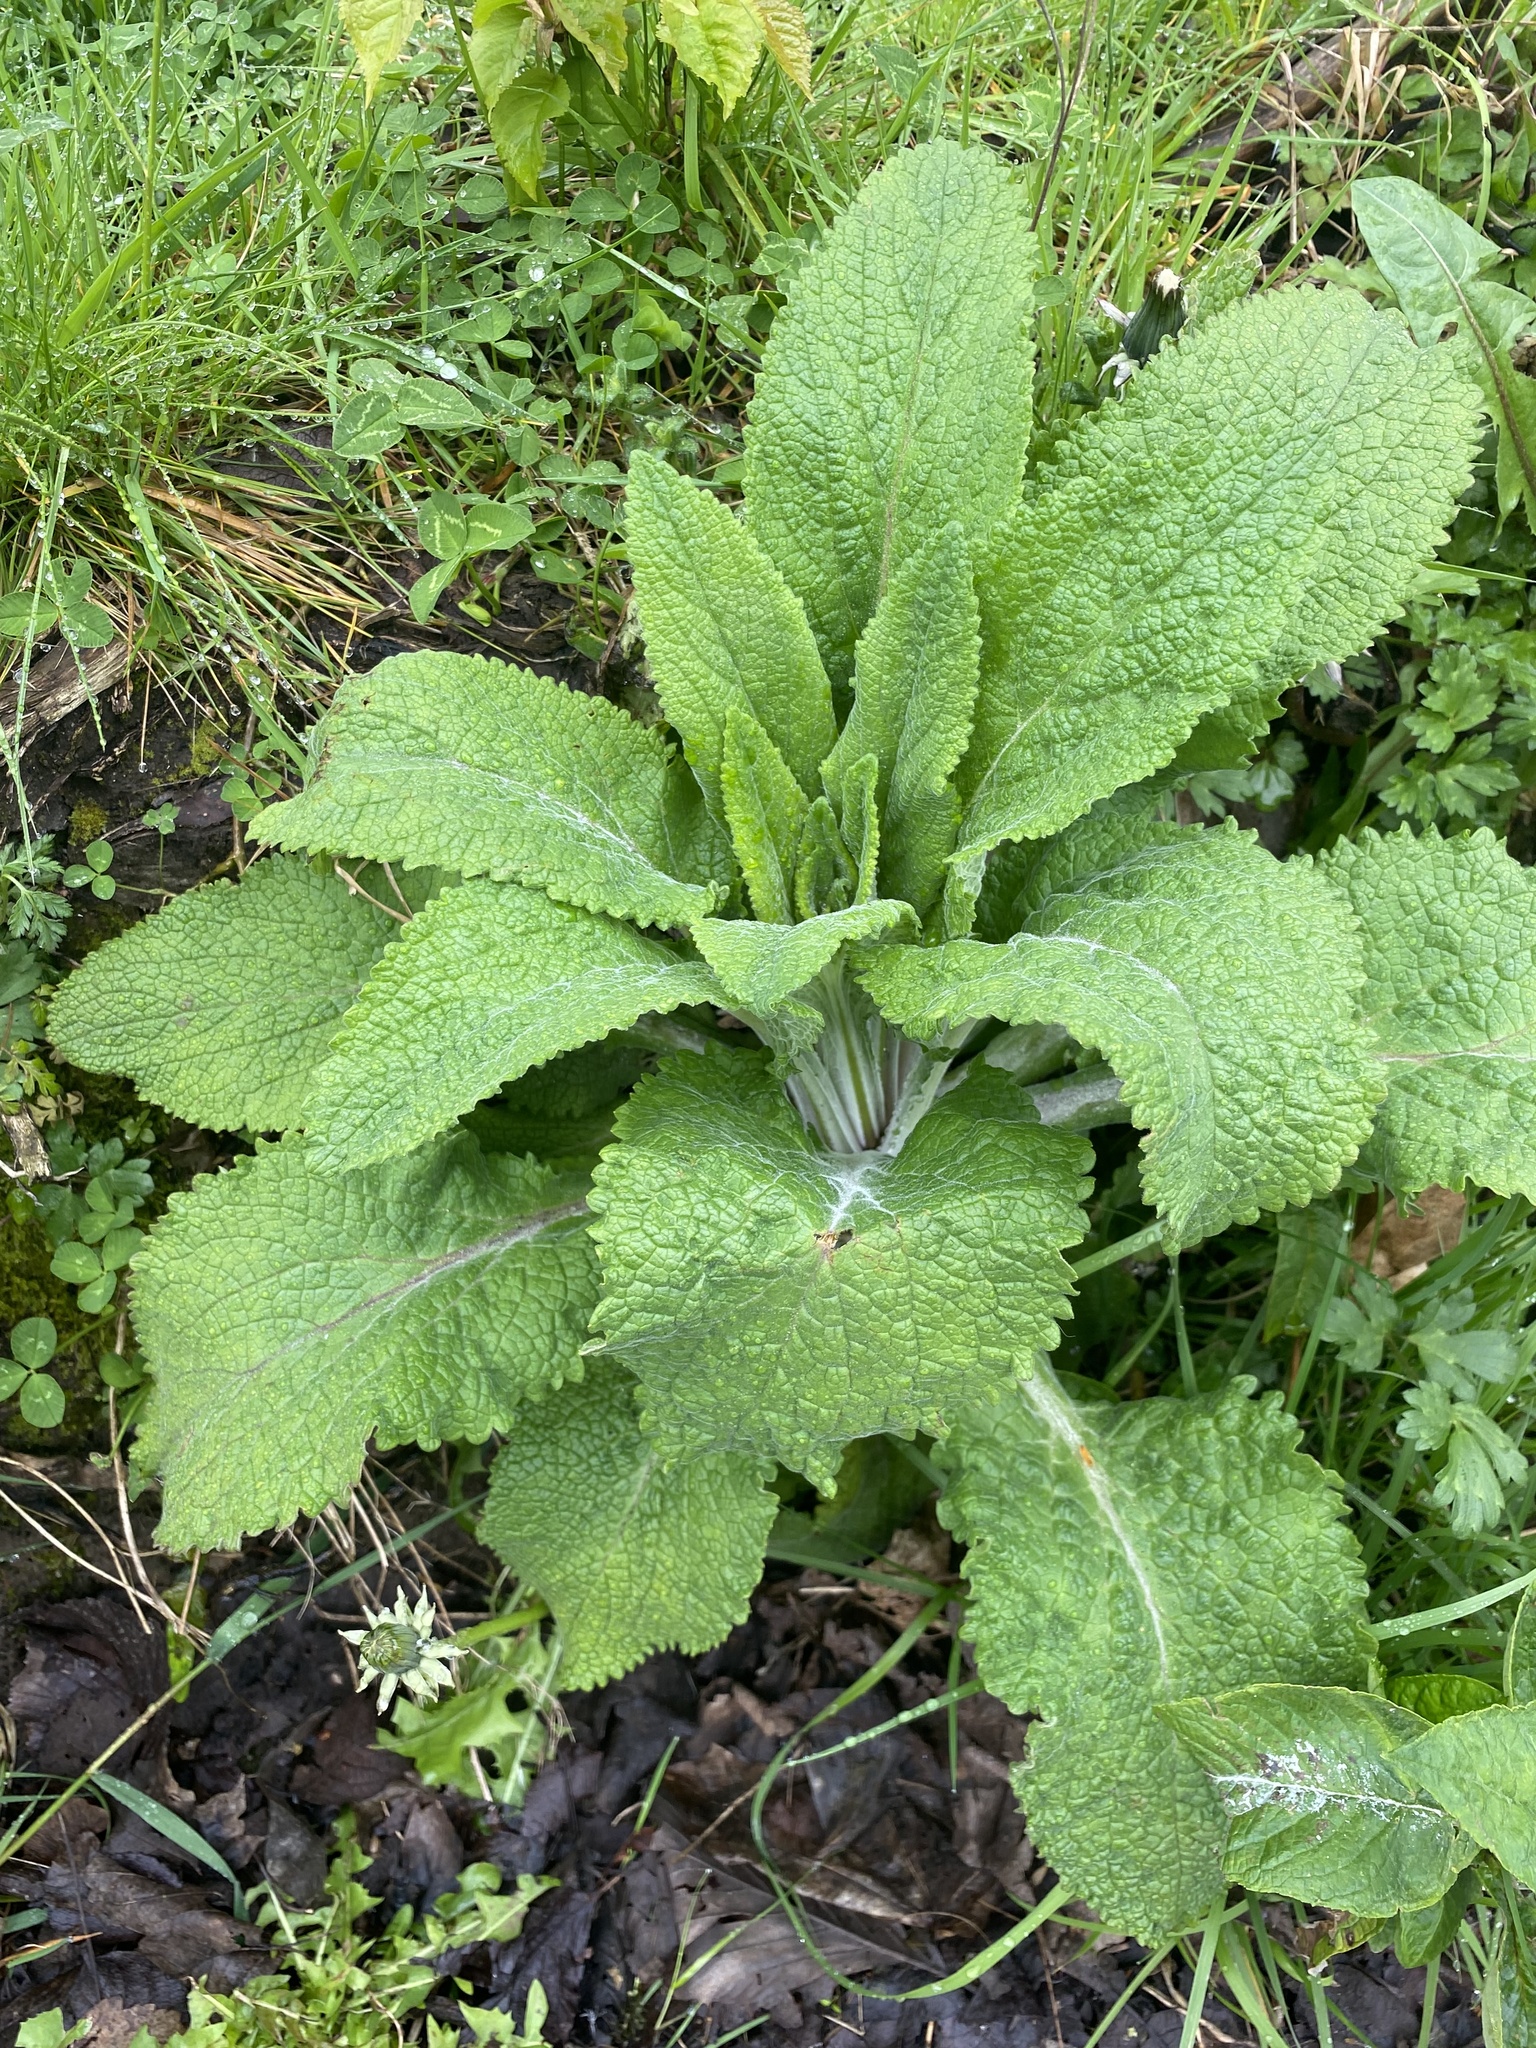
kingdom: Plantae
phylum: Tracheophyta
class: Magnoliopsida
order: Lamiales
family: Plantaginaceae
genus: Digitalis
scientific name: Digitalis purpurea
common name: Foxglove
